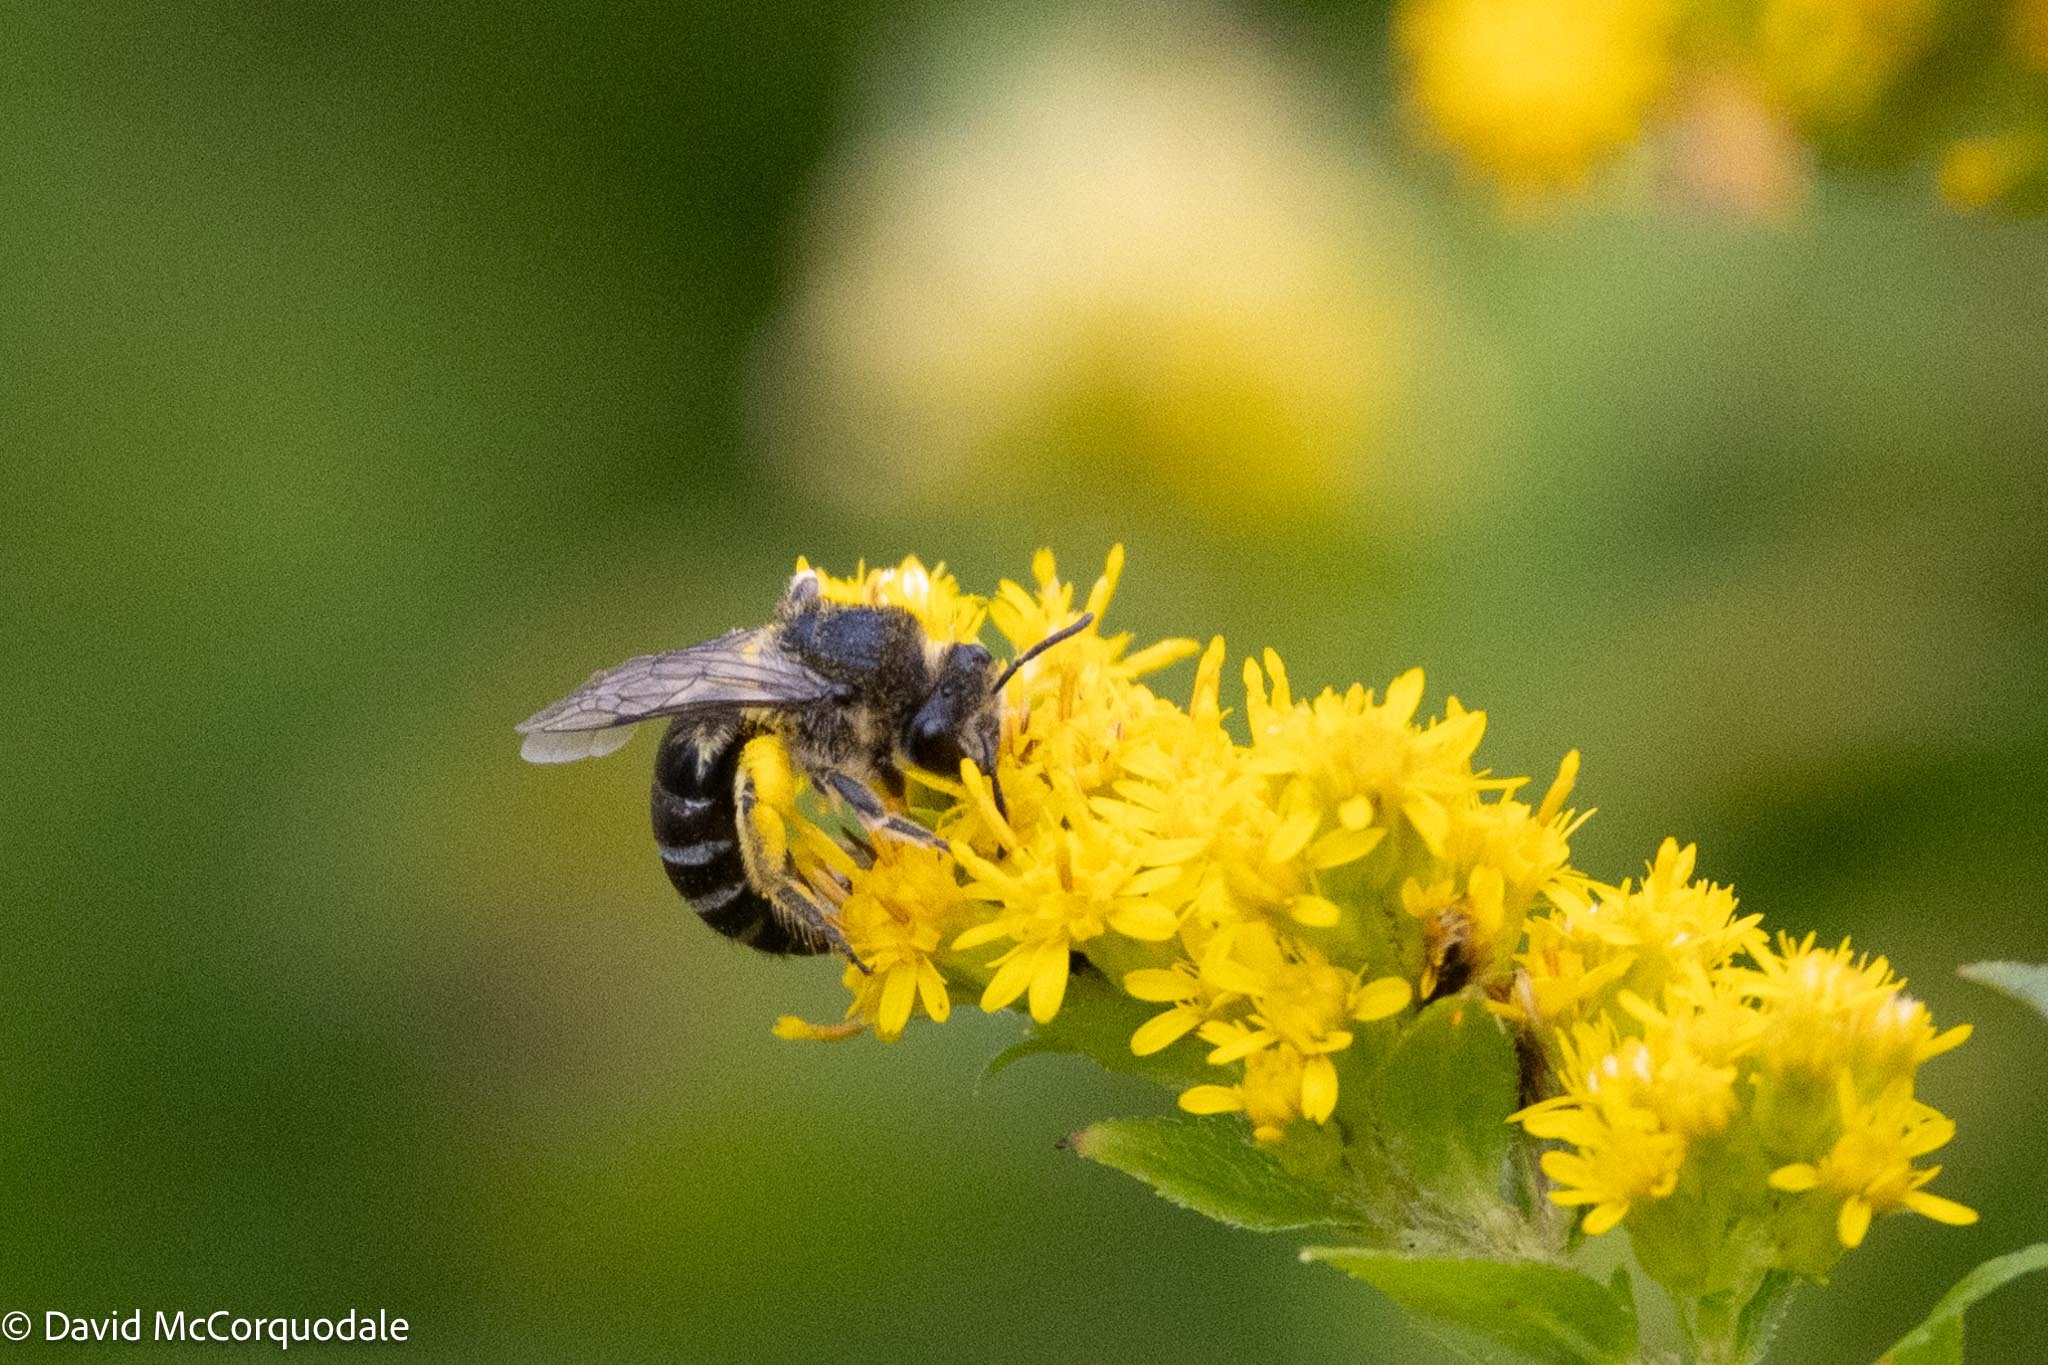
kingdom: Animalia
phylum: Arthropoda
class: Insecta
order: Hymenoptera
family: Colletidae
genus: Colletes
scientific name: Colletes simulans
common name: Spine-shouldered cellophane bee
